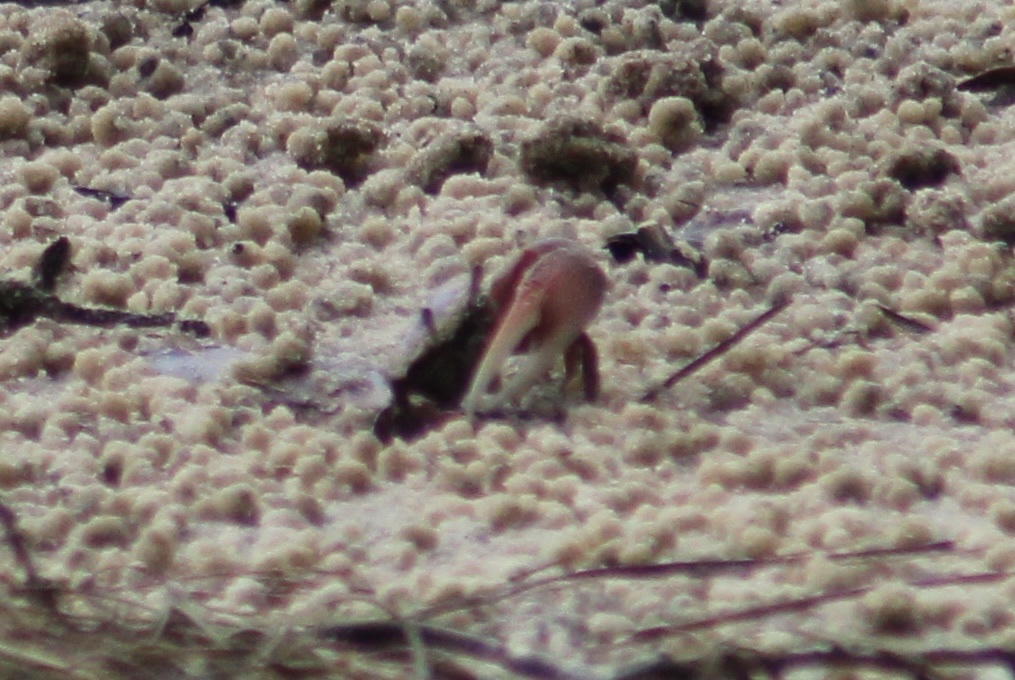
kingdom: Animalia
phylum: Arthropoda
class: Malacostraca
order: Decapoda
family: Ocypodidae
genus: Leptuca
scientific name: Leptuca pugilator
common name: Atlantic sand fiddler crab
